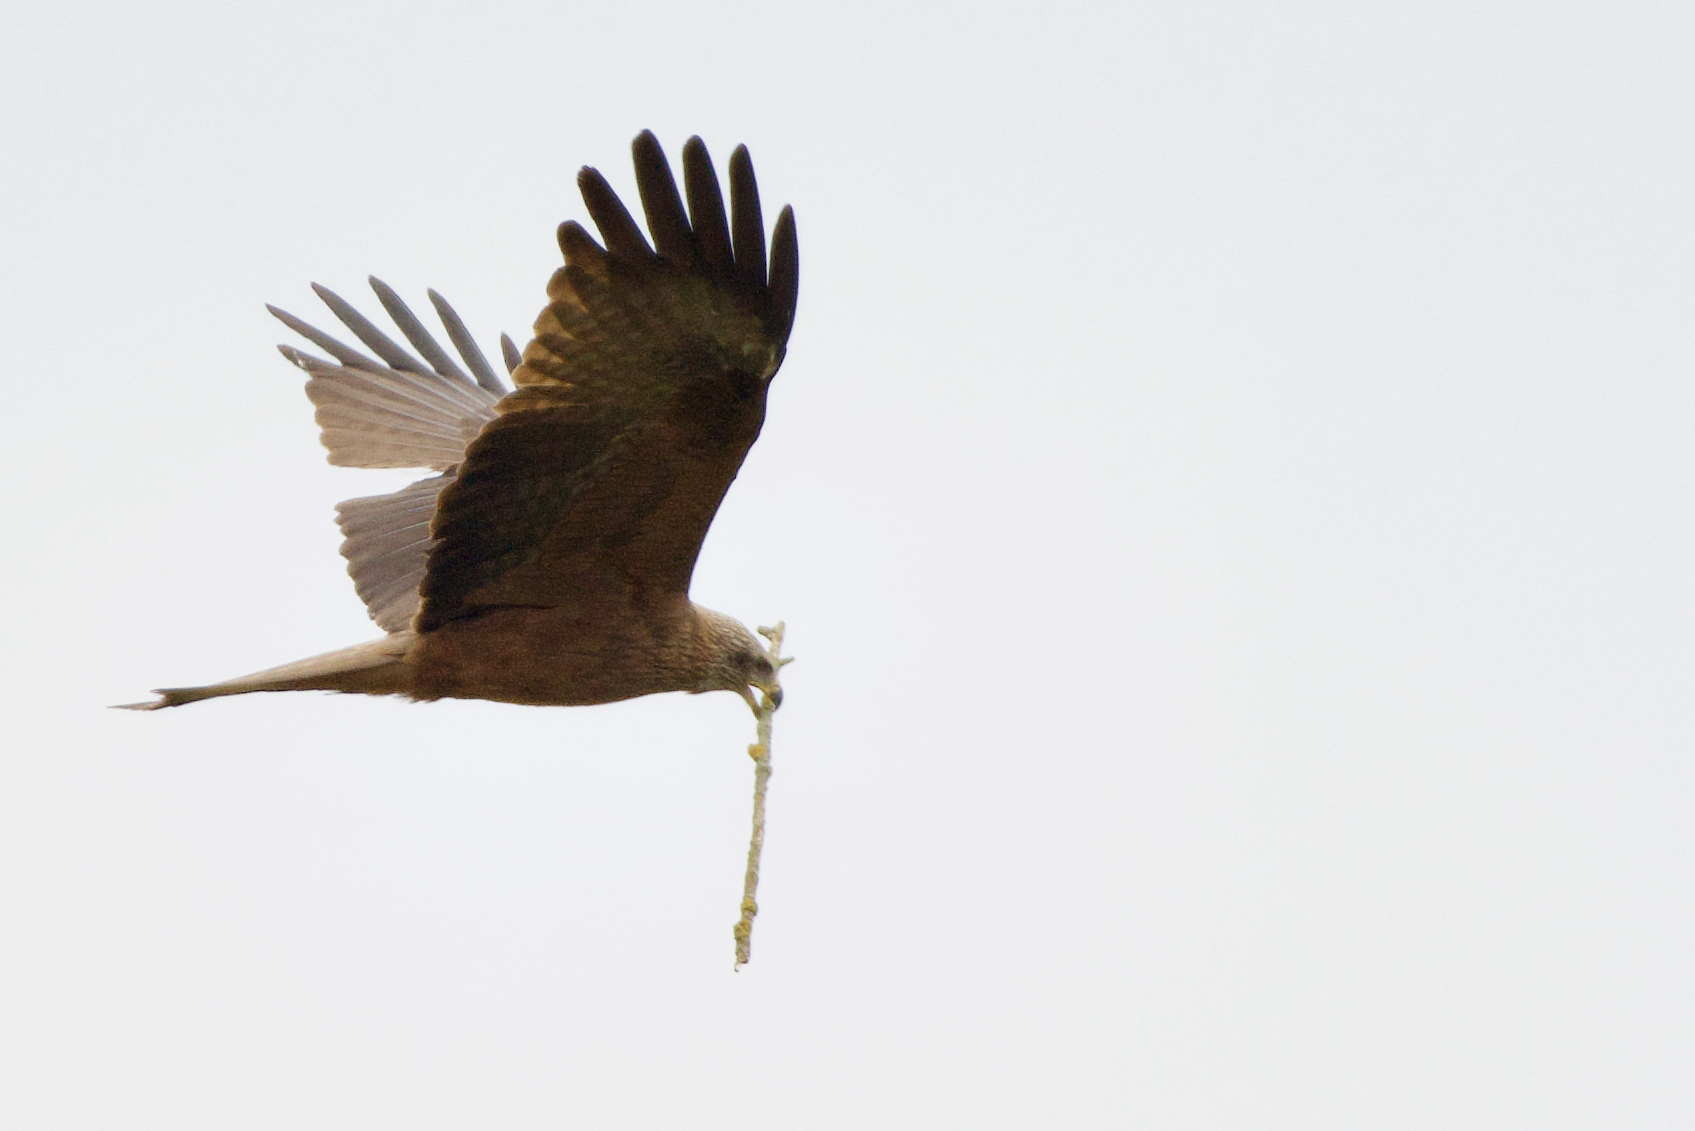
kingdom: Animalia
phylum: Chordata
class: Aves
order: Accipitriformes
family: Accipitridae
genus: Milvus
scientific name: Milvus migrans
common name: Black kite
